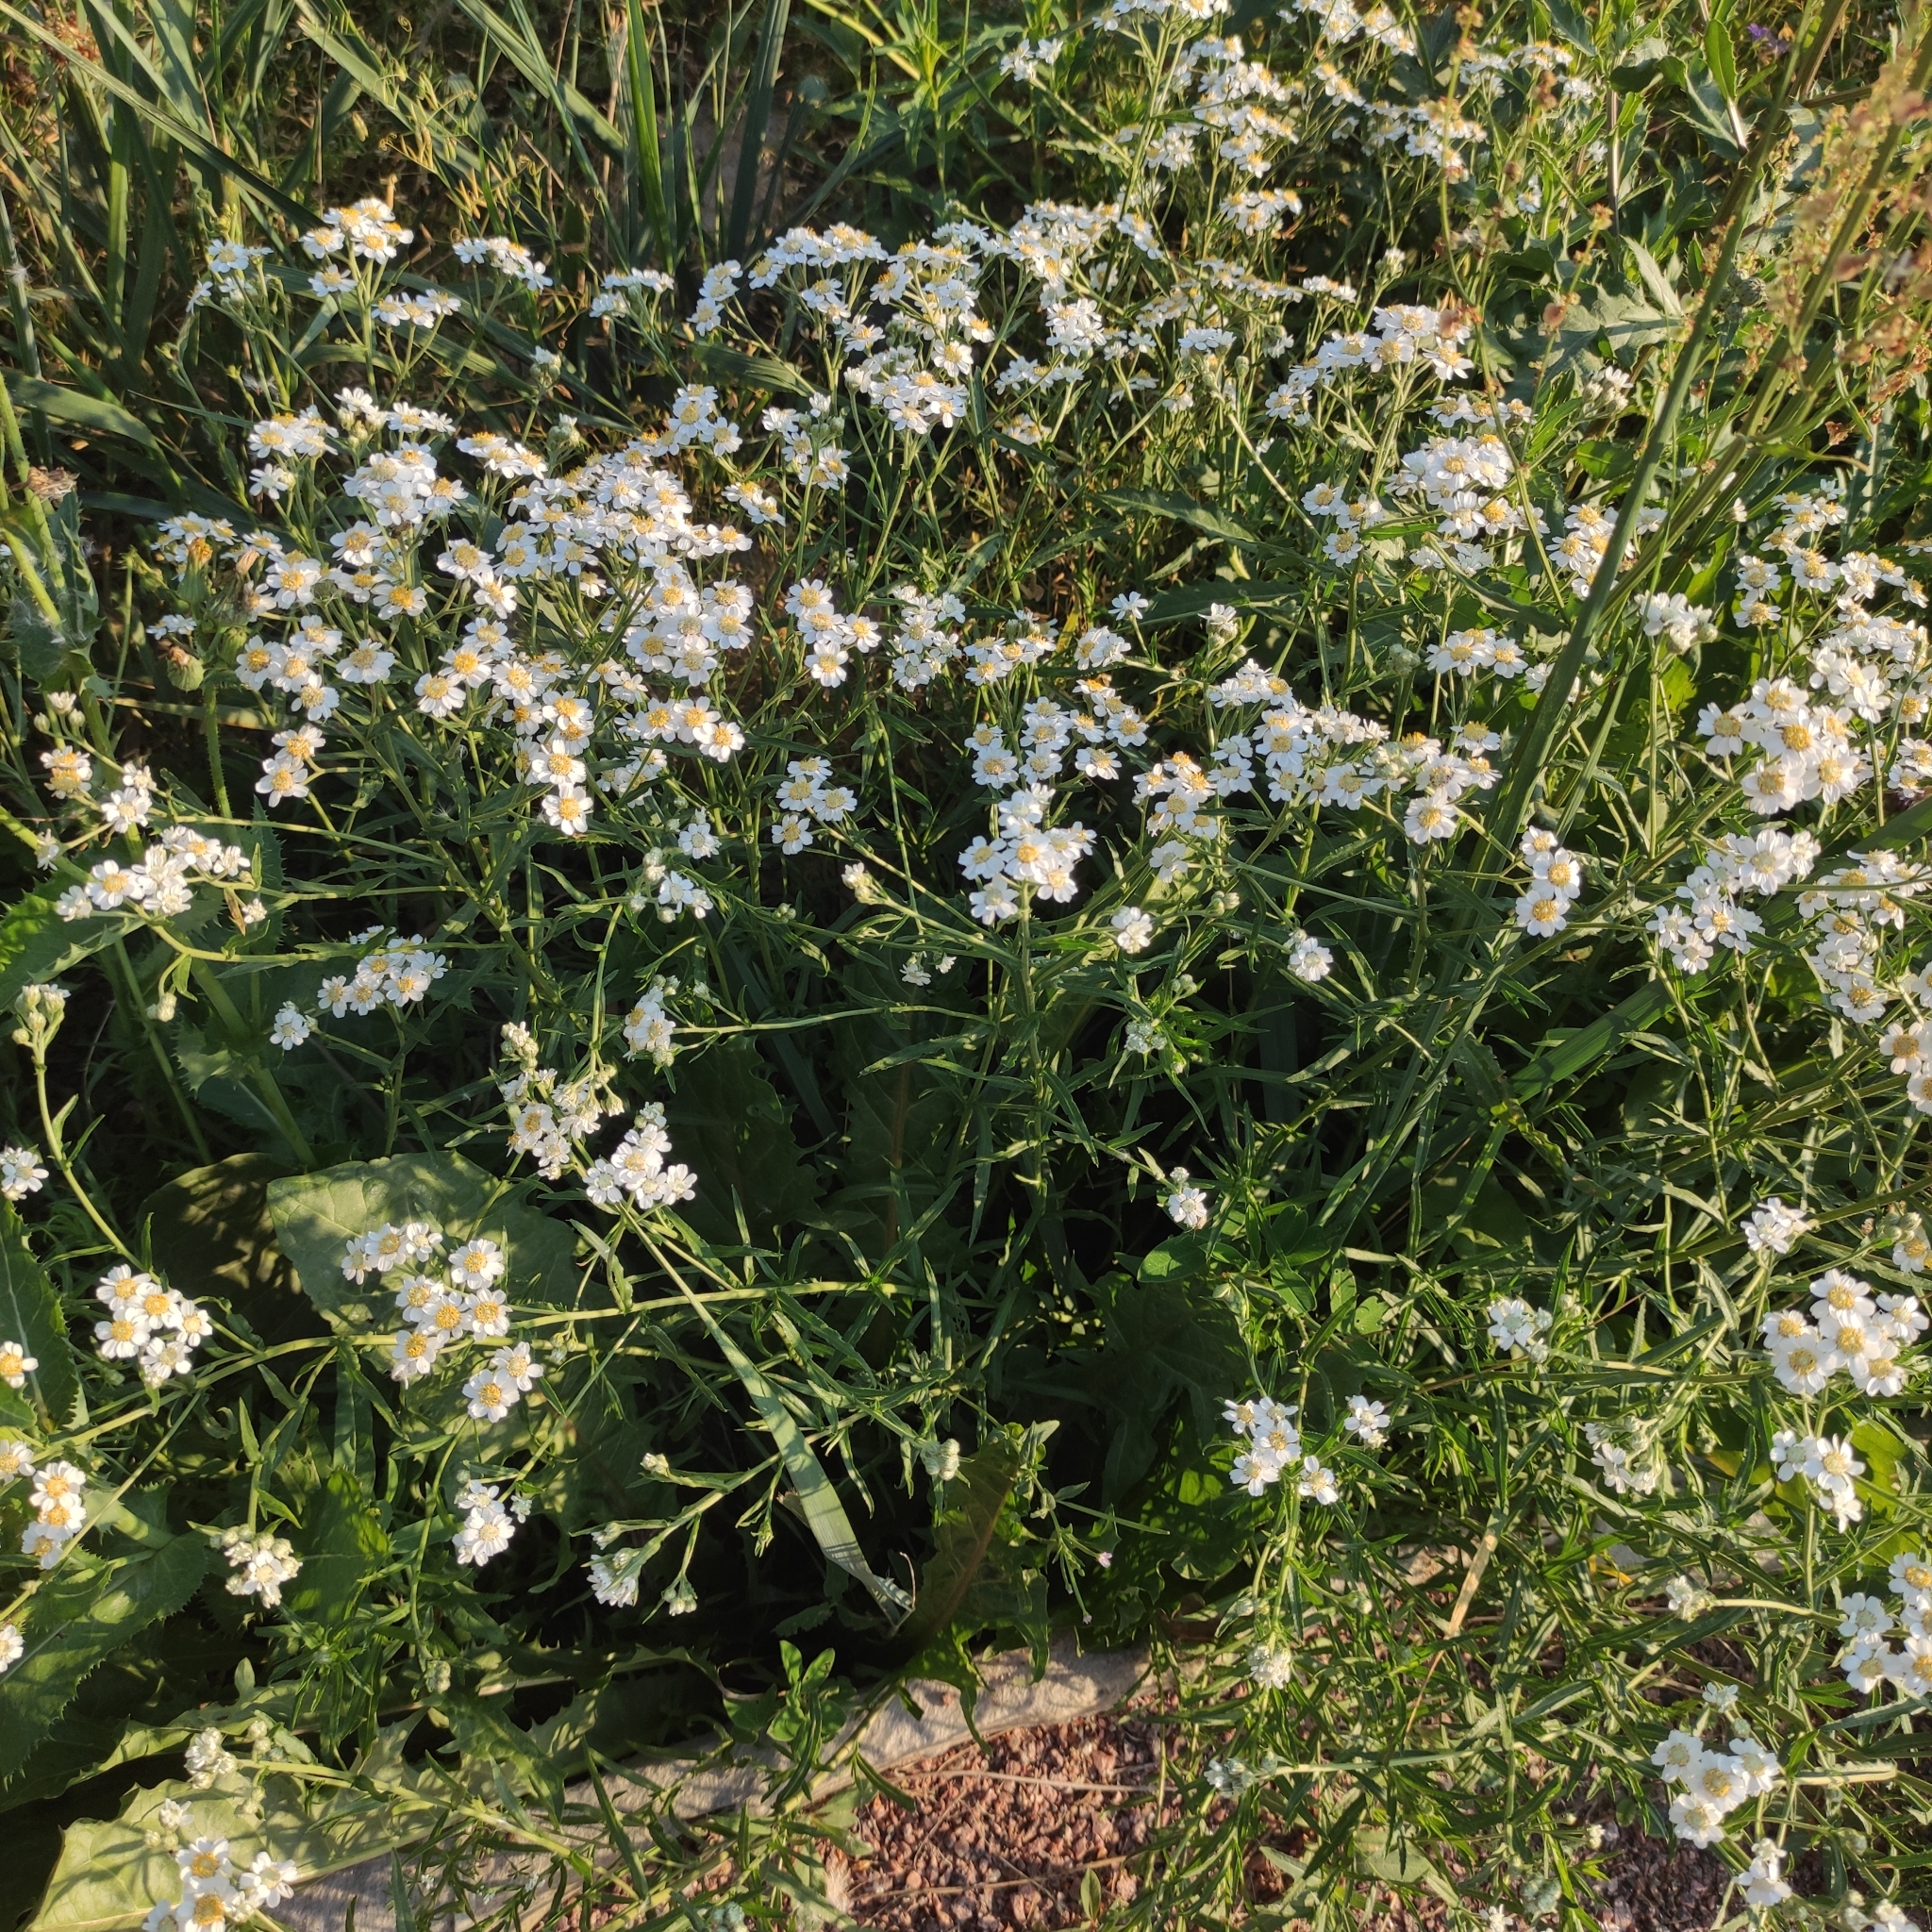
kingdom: Plantae
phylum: Tracheophyta
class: Magnoliopsida
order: Asterales
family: Asteraceae
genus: Achillea
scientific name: Achillea ptarmica
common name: Sneezeweed
